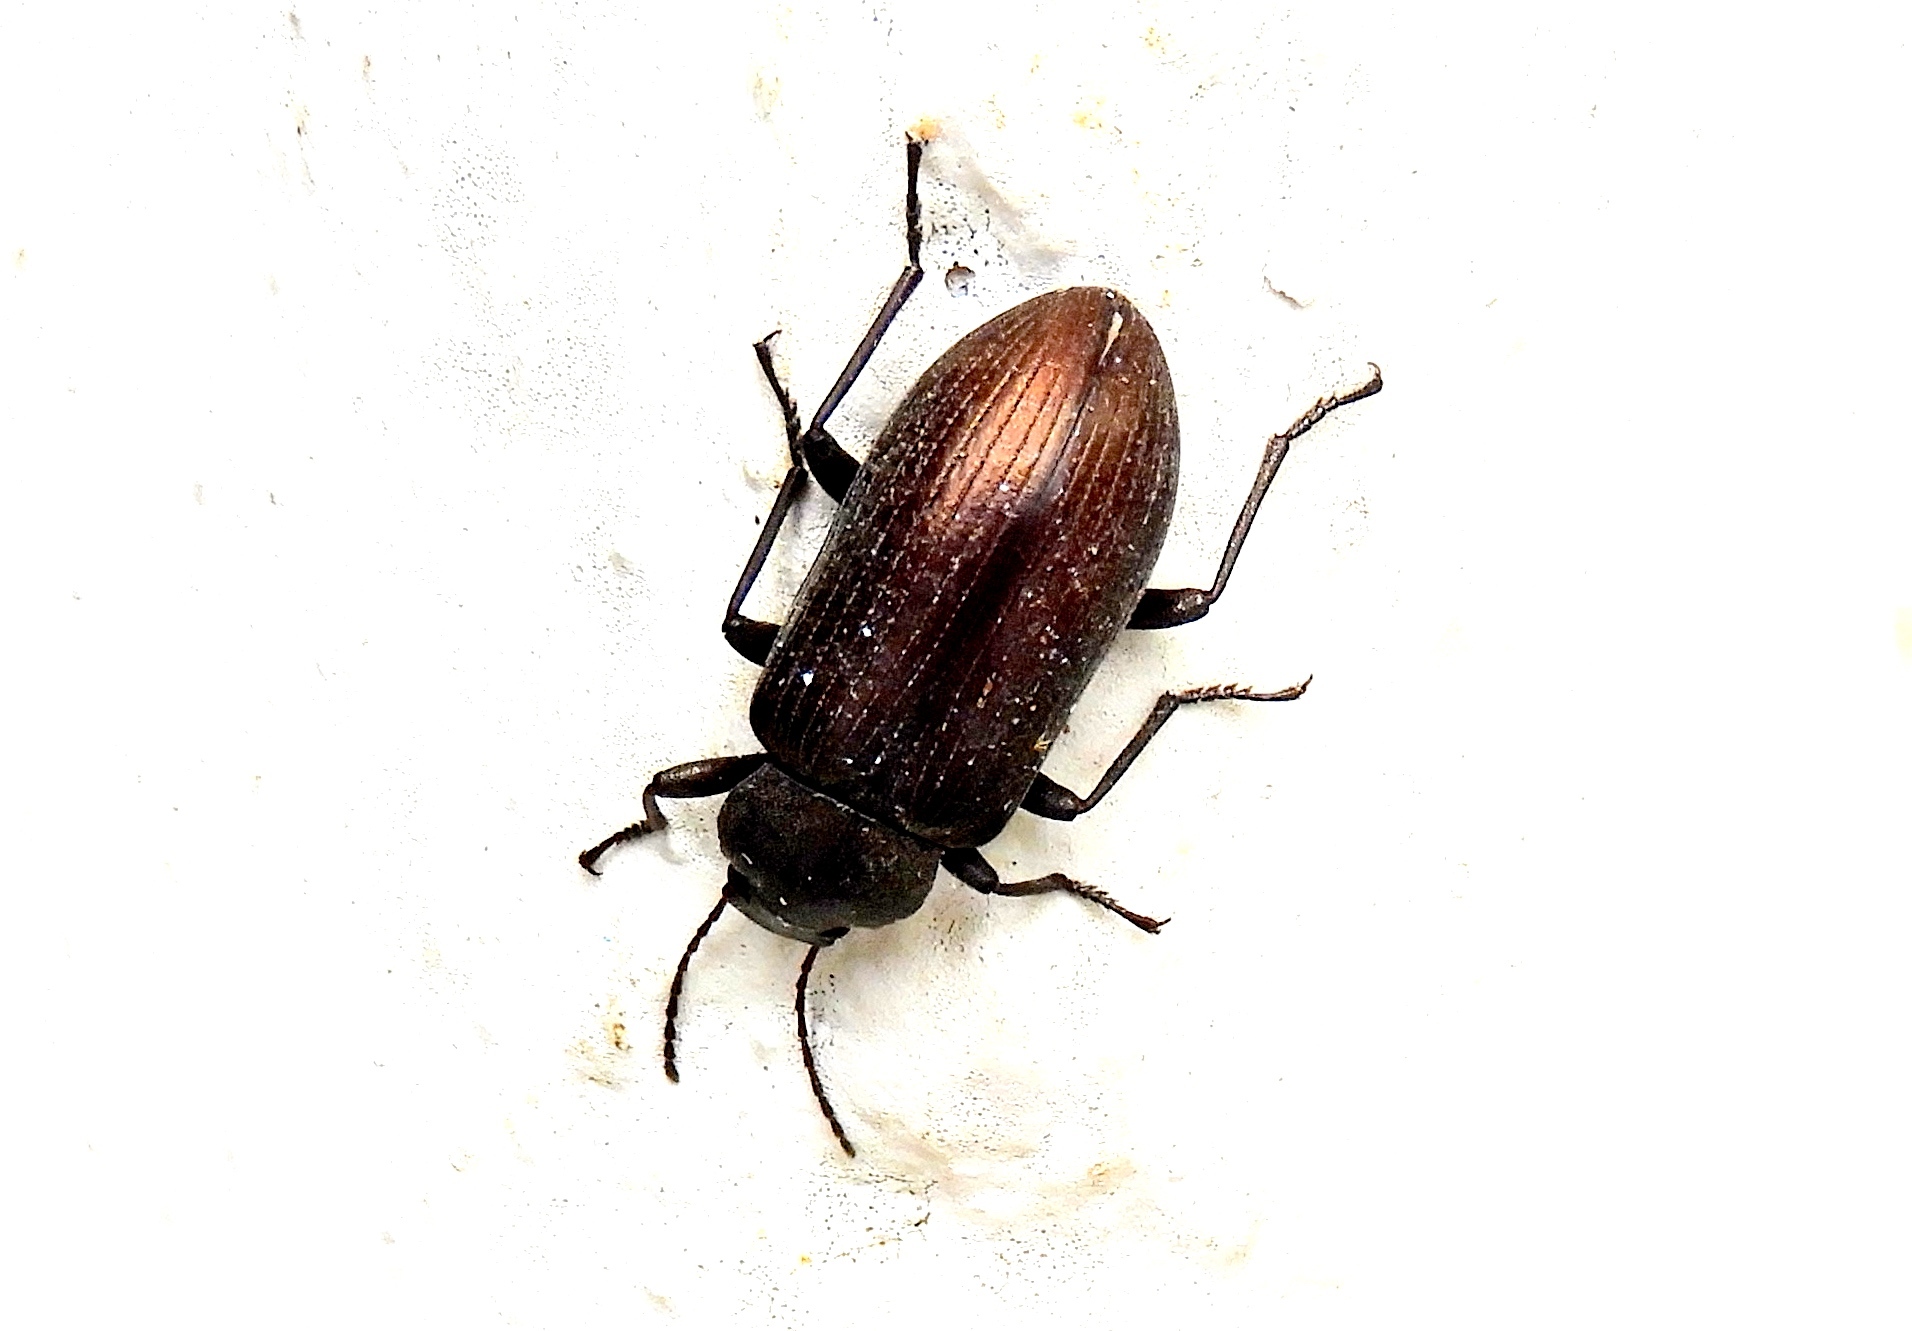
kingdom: Animalia
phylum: Arthropoda
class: Insecta
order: Coleoptera
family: Helopii
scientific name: Helopii
